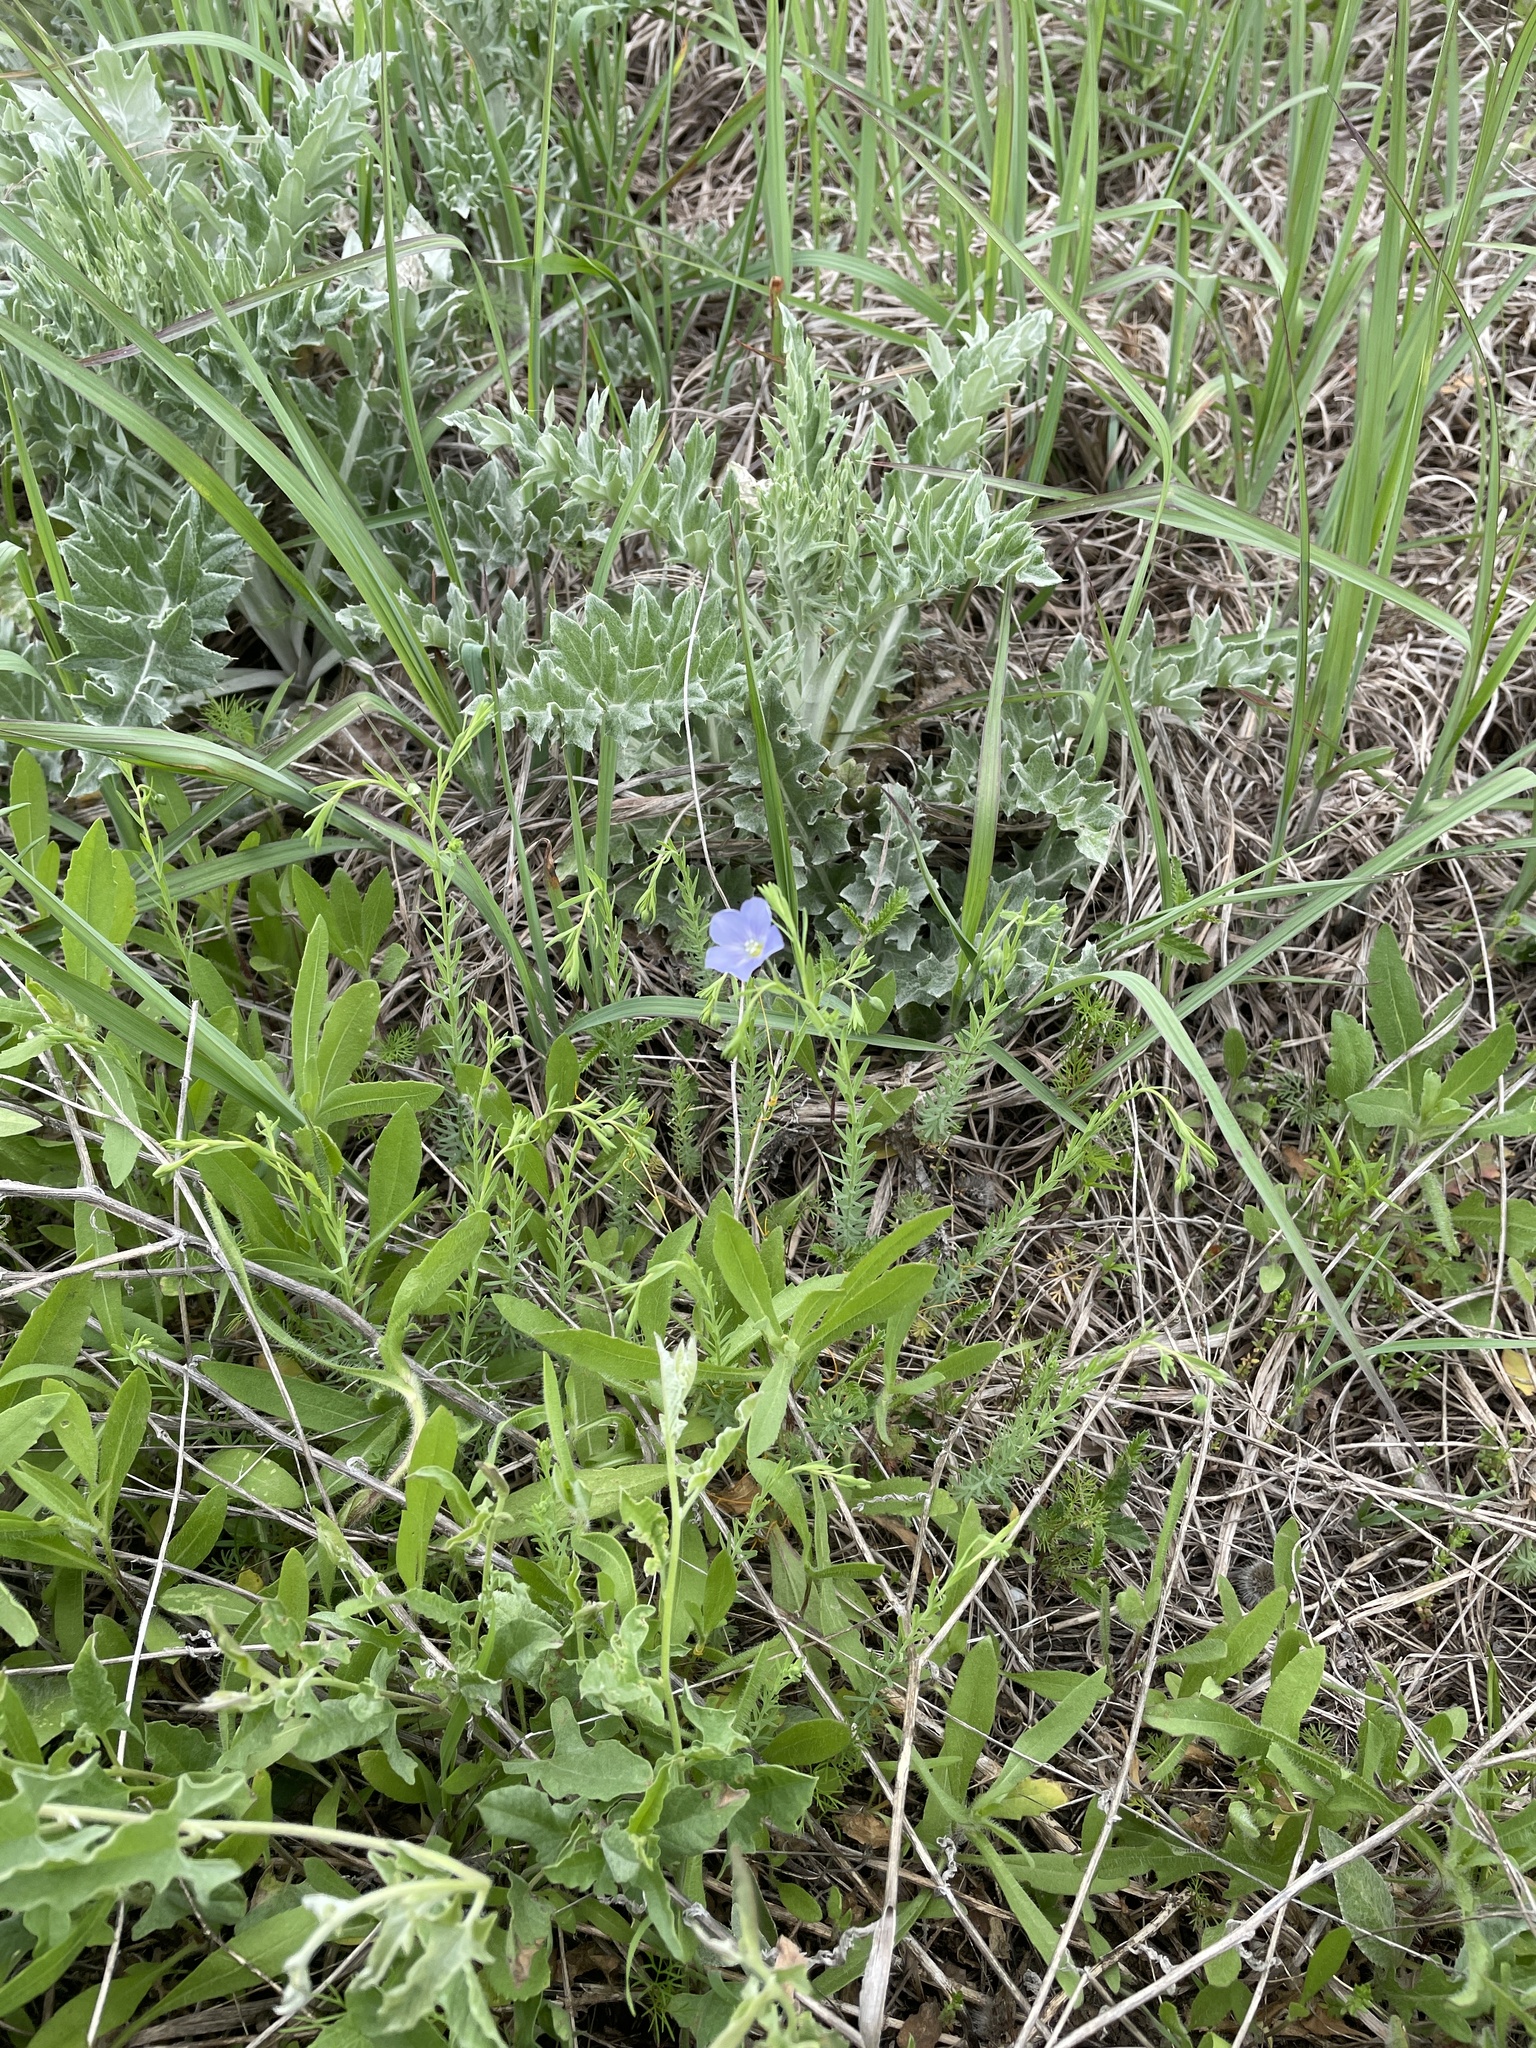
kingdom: Plantae
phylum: Tracheophyta
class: Magnoliopsida
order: Malpighiales
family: Linaceae
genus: Linum
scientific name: Linum pratense
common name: Norton's flax
